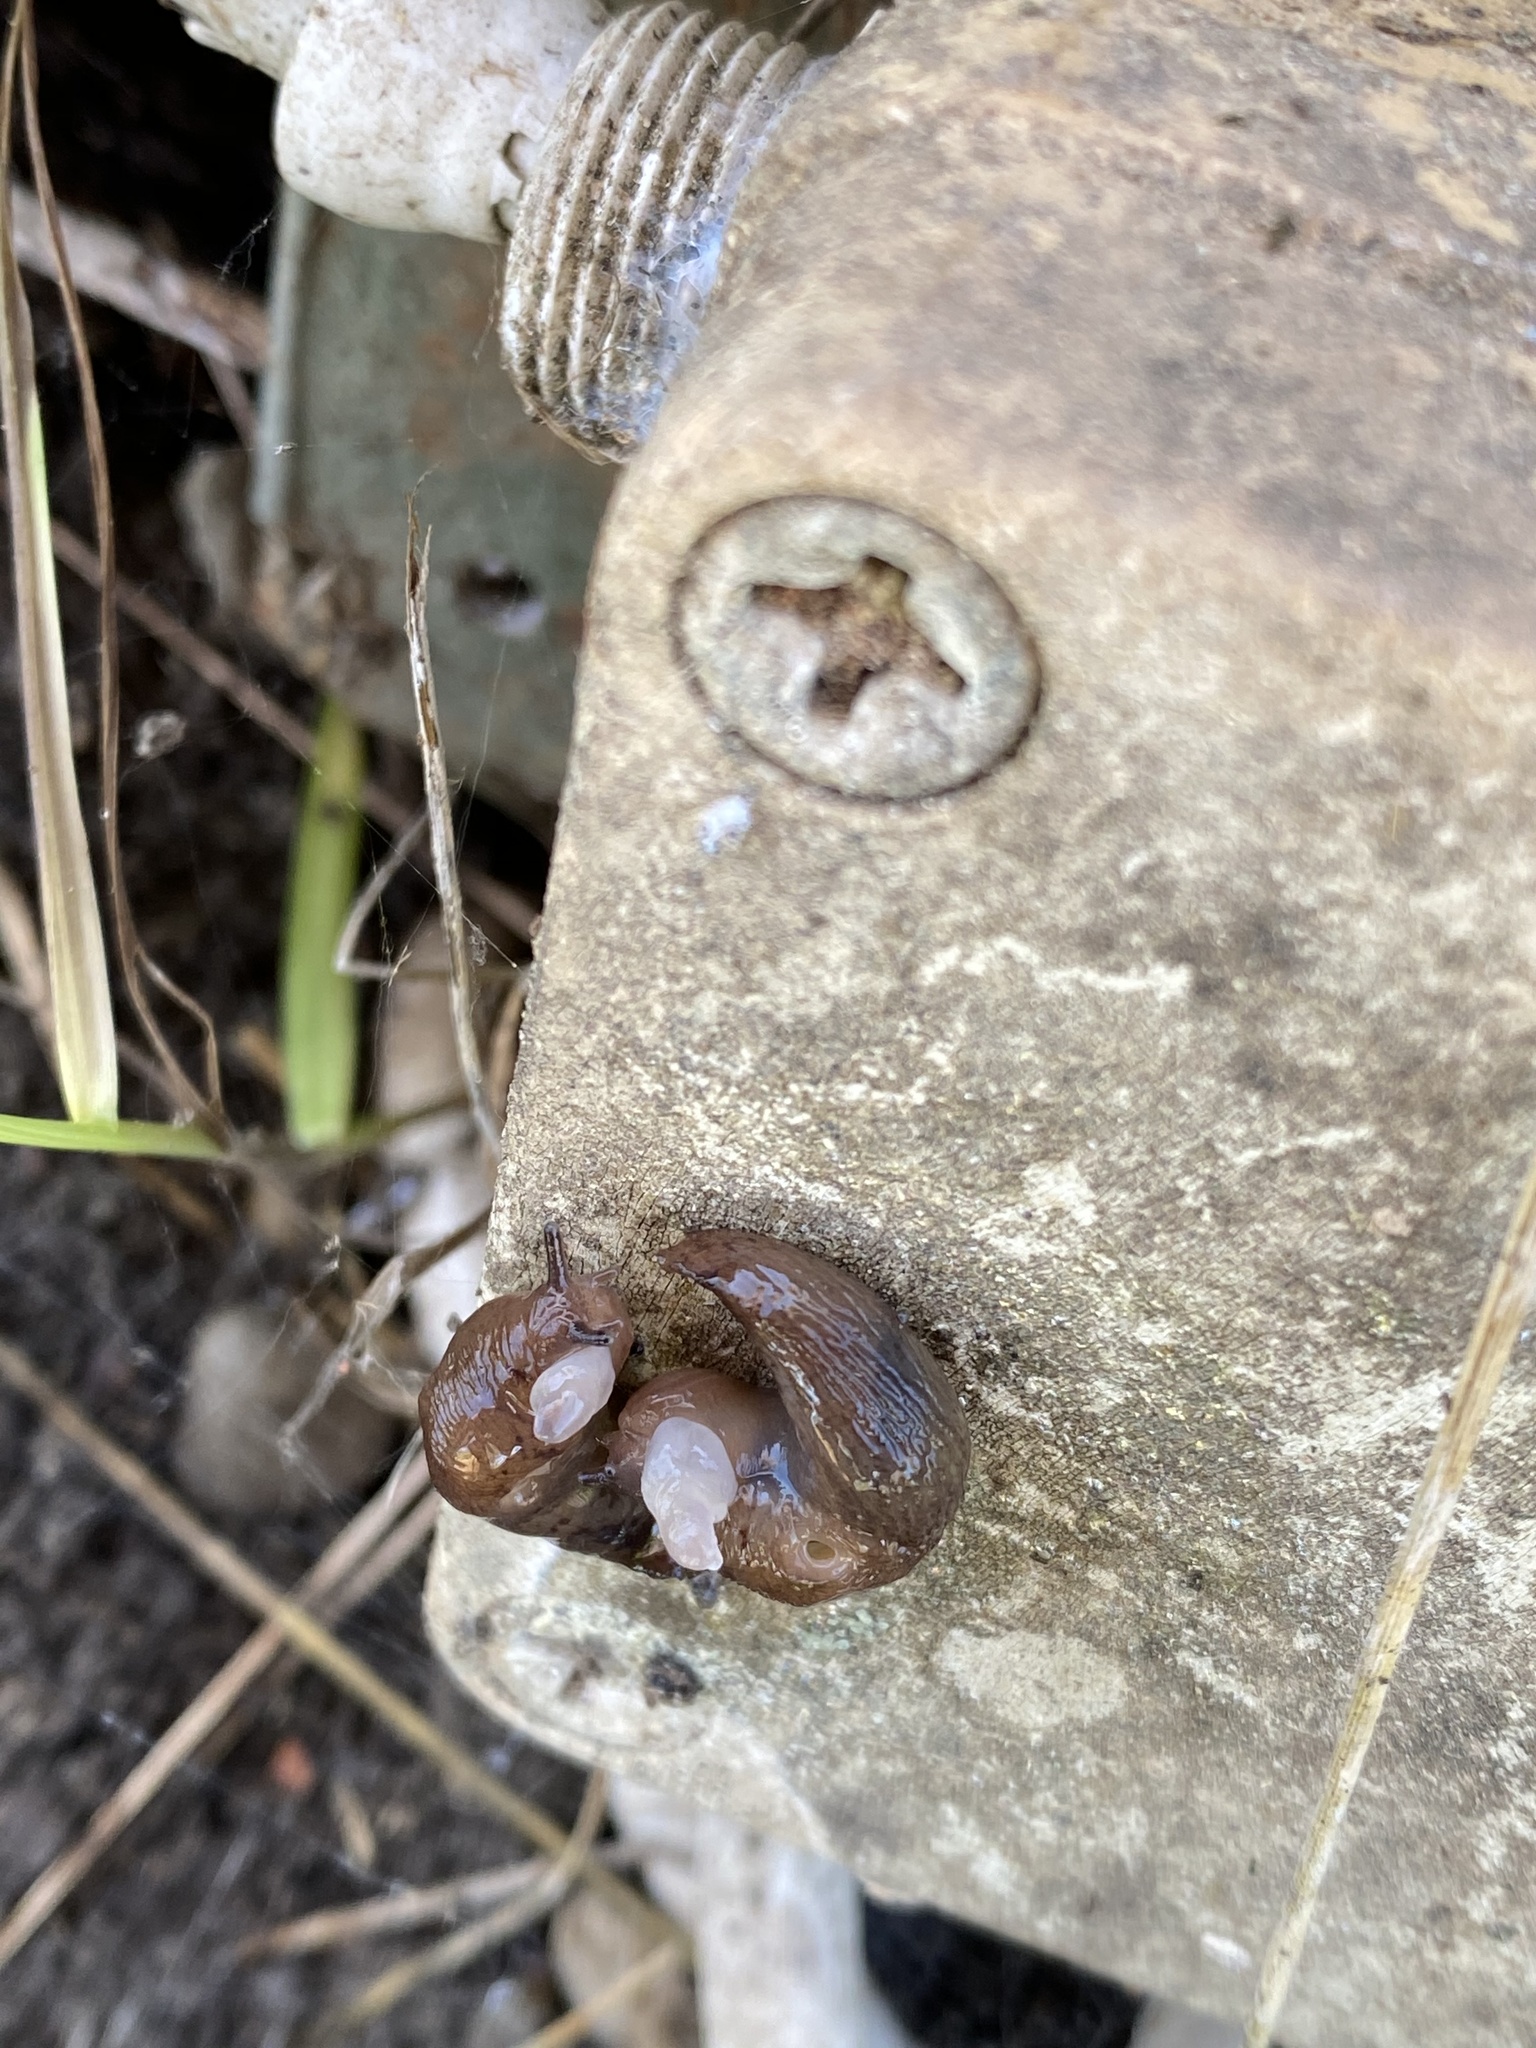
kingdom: Animalia
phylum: Mollusca
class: Gastropoda
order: Stylommatophora
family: Agriolimacidae
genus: Deroceras
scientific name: Deroceras invadens
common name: Caruana's slug
